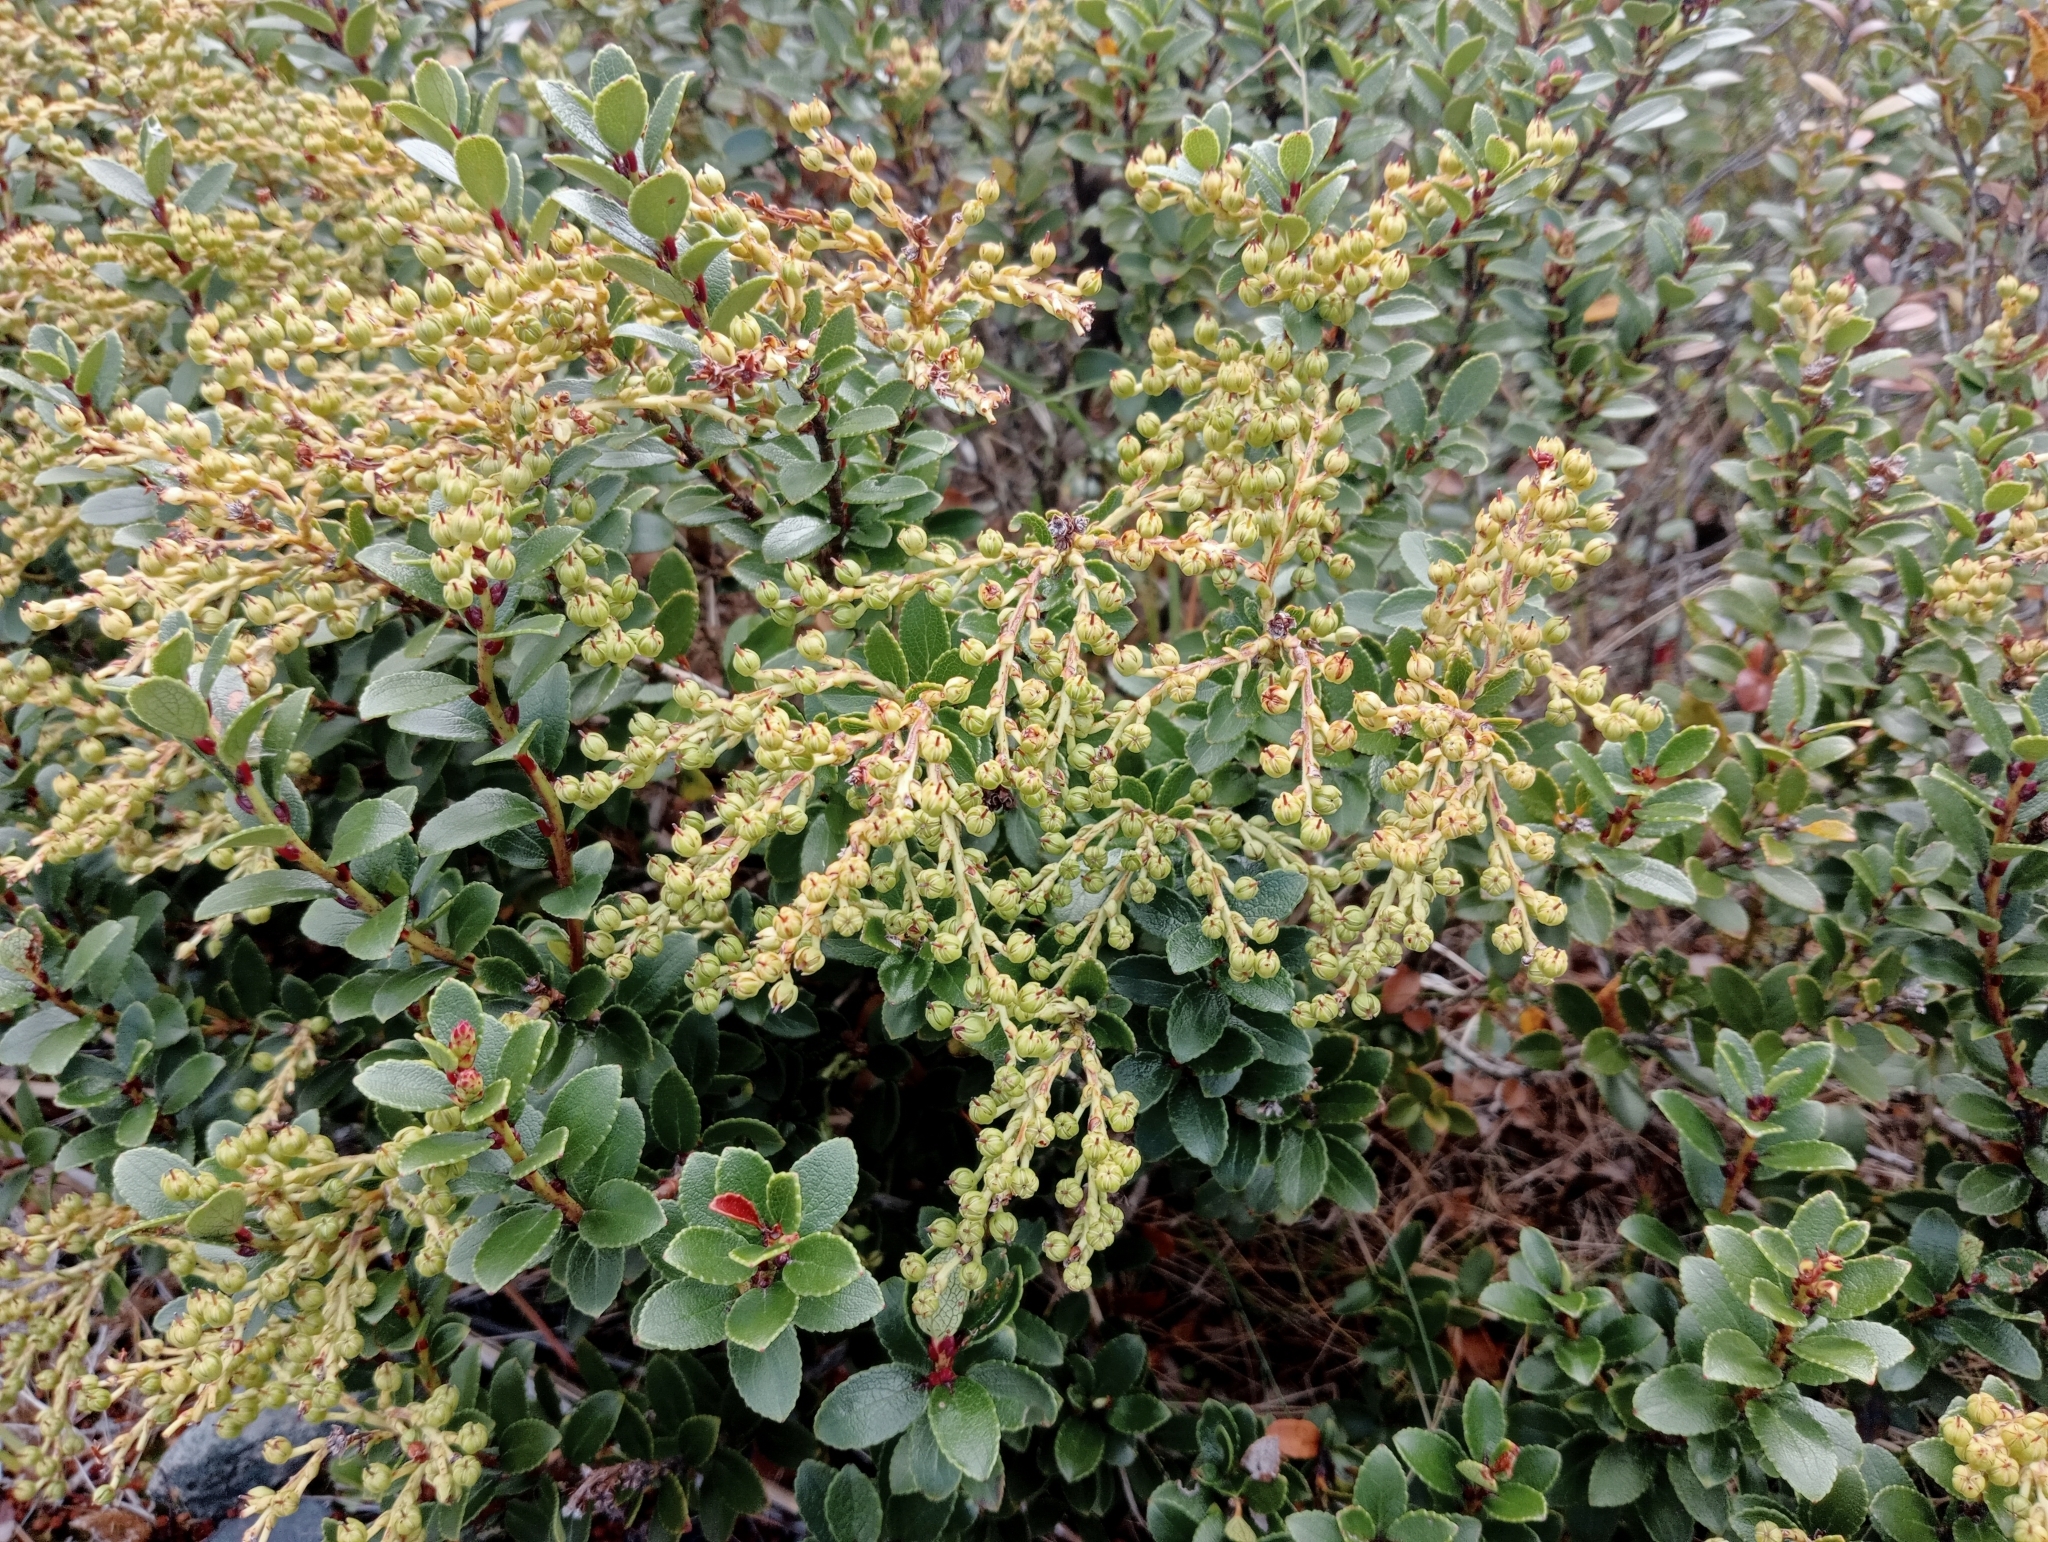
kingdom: Plantae
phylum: Tracheophyta
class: Magnoliopsida
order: Ericales
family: Ericaceae
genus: Gaultheria
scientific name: Gaultheria crassa
